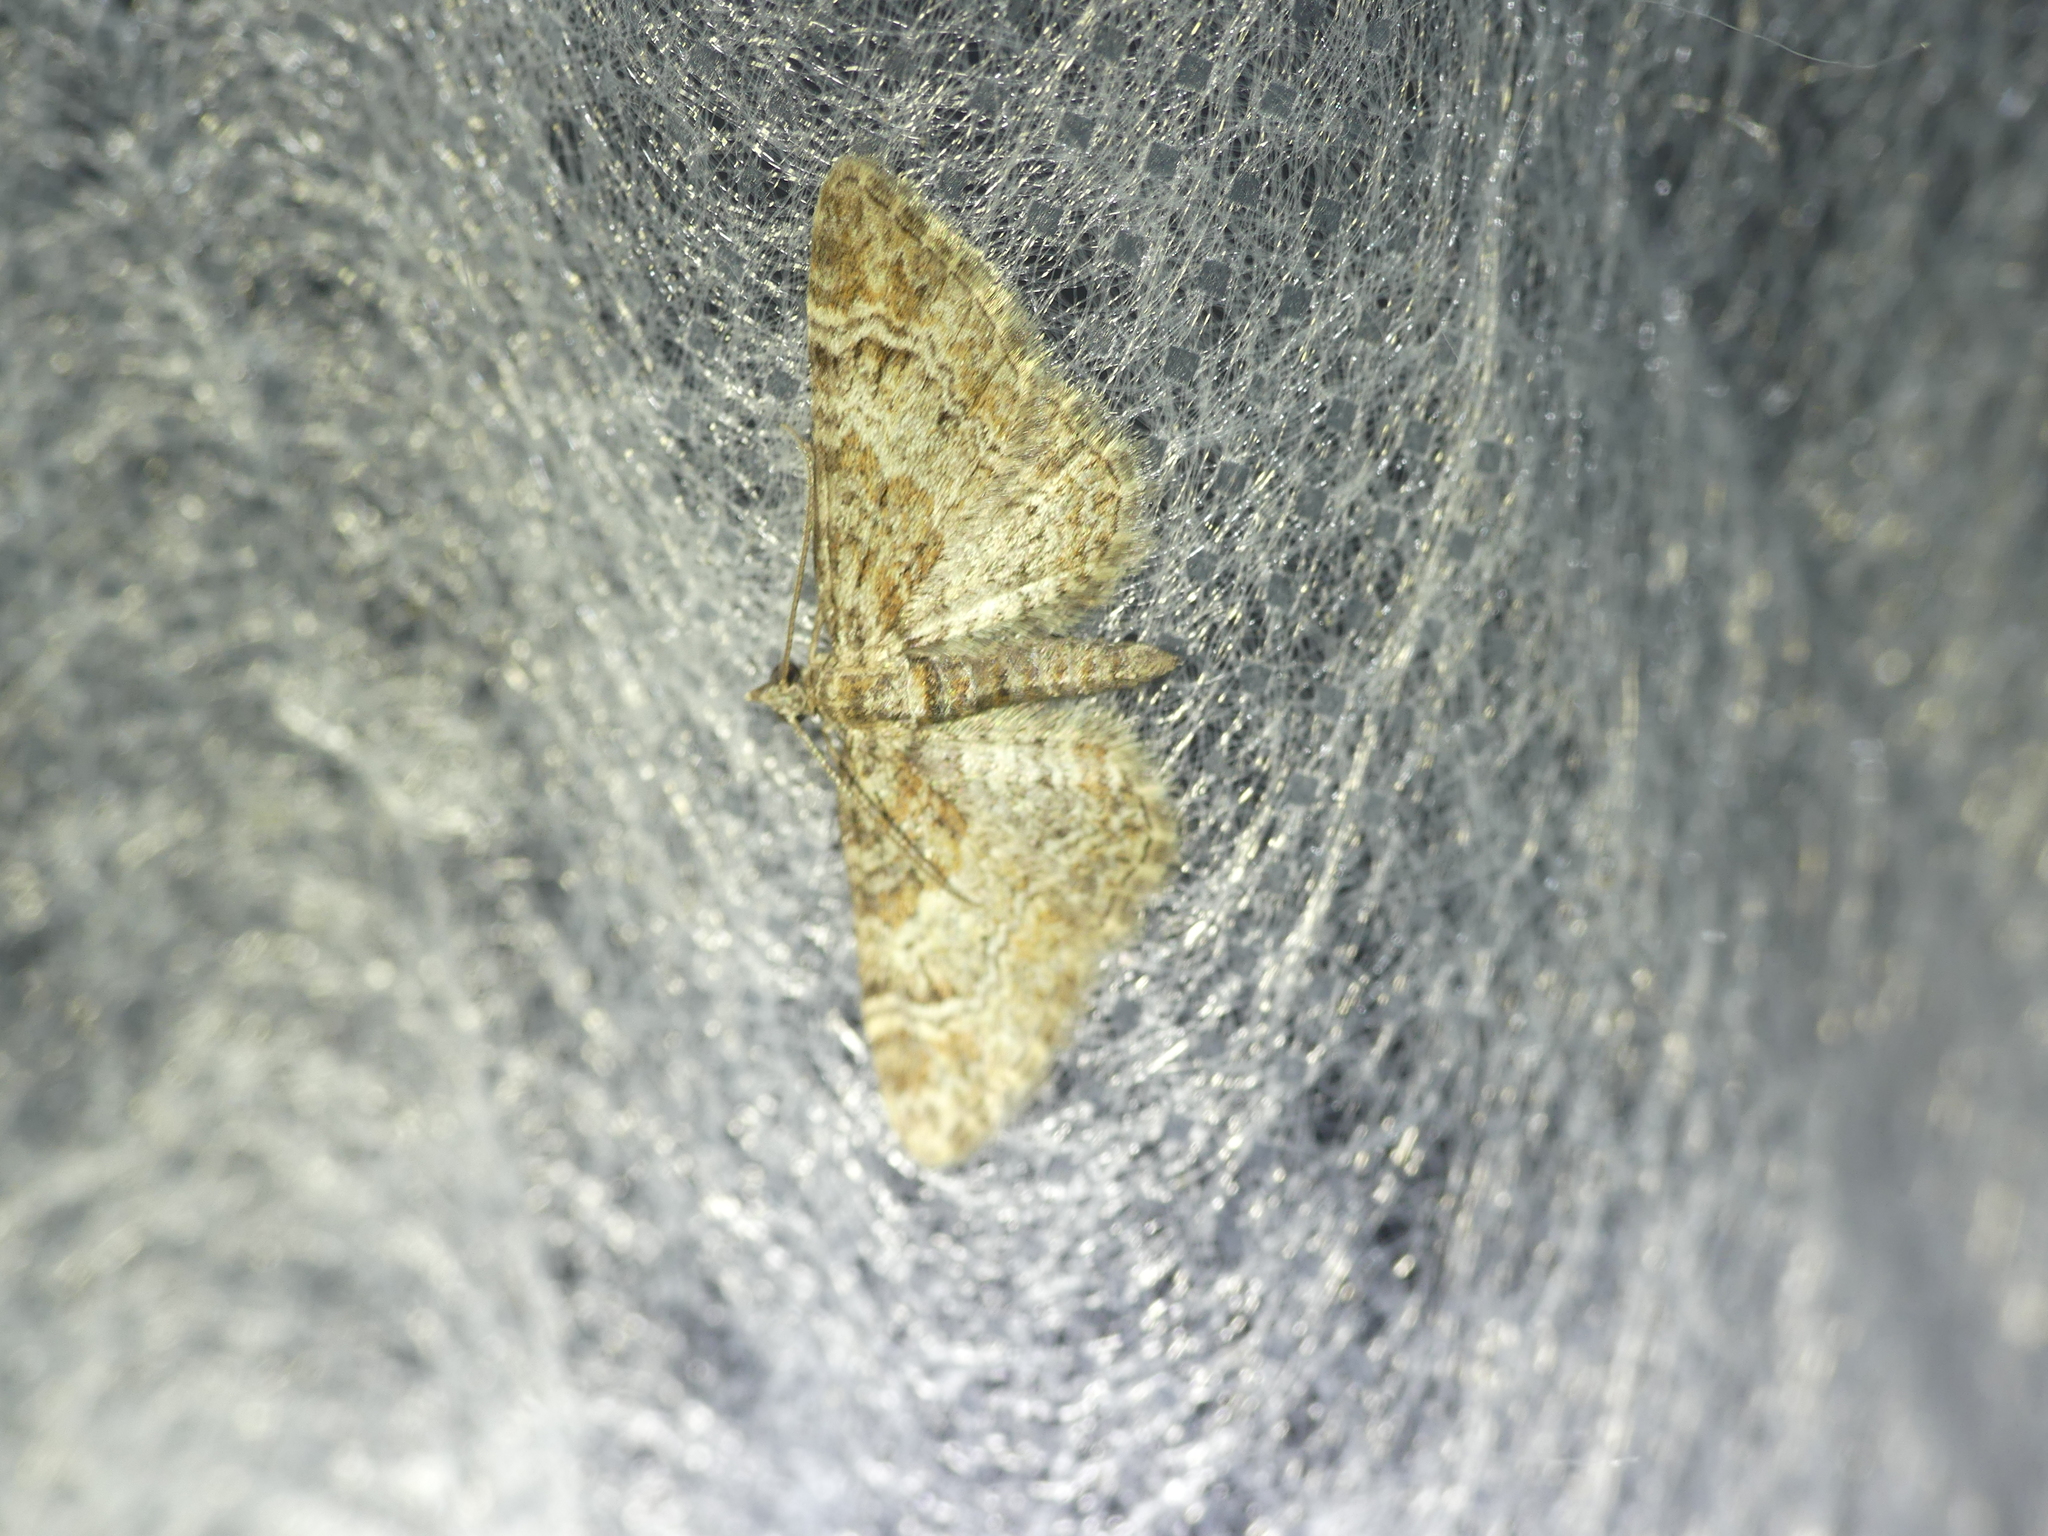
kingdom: Animalia
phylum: Arthropoda
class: Insecta
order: Lepidoptera
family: Geometridae
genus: Gymnoscelis
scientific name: Gymnoscelis rufifasciata
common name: Double-striped pug
